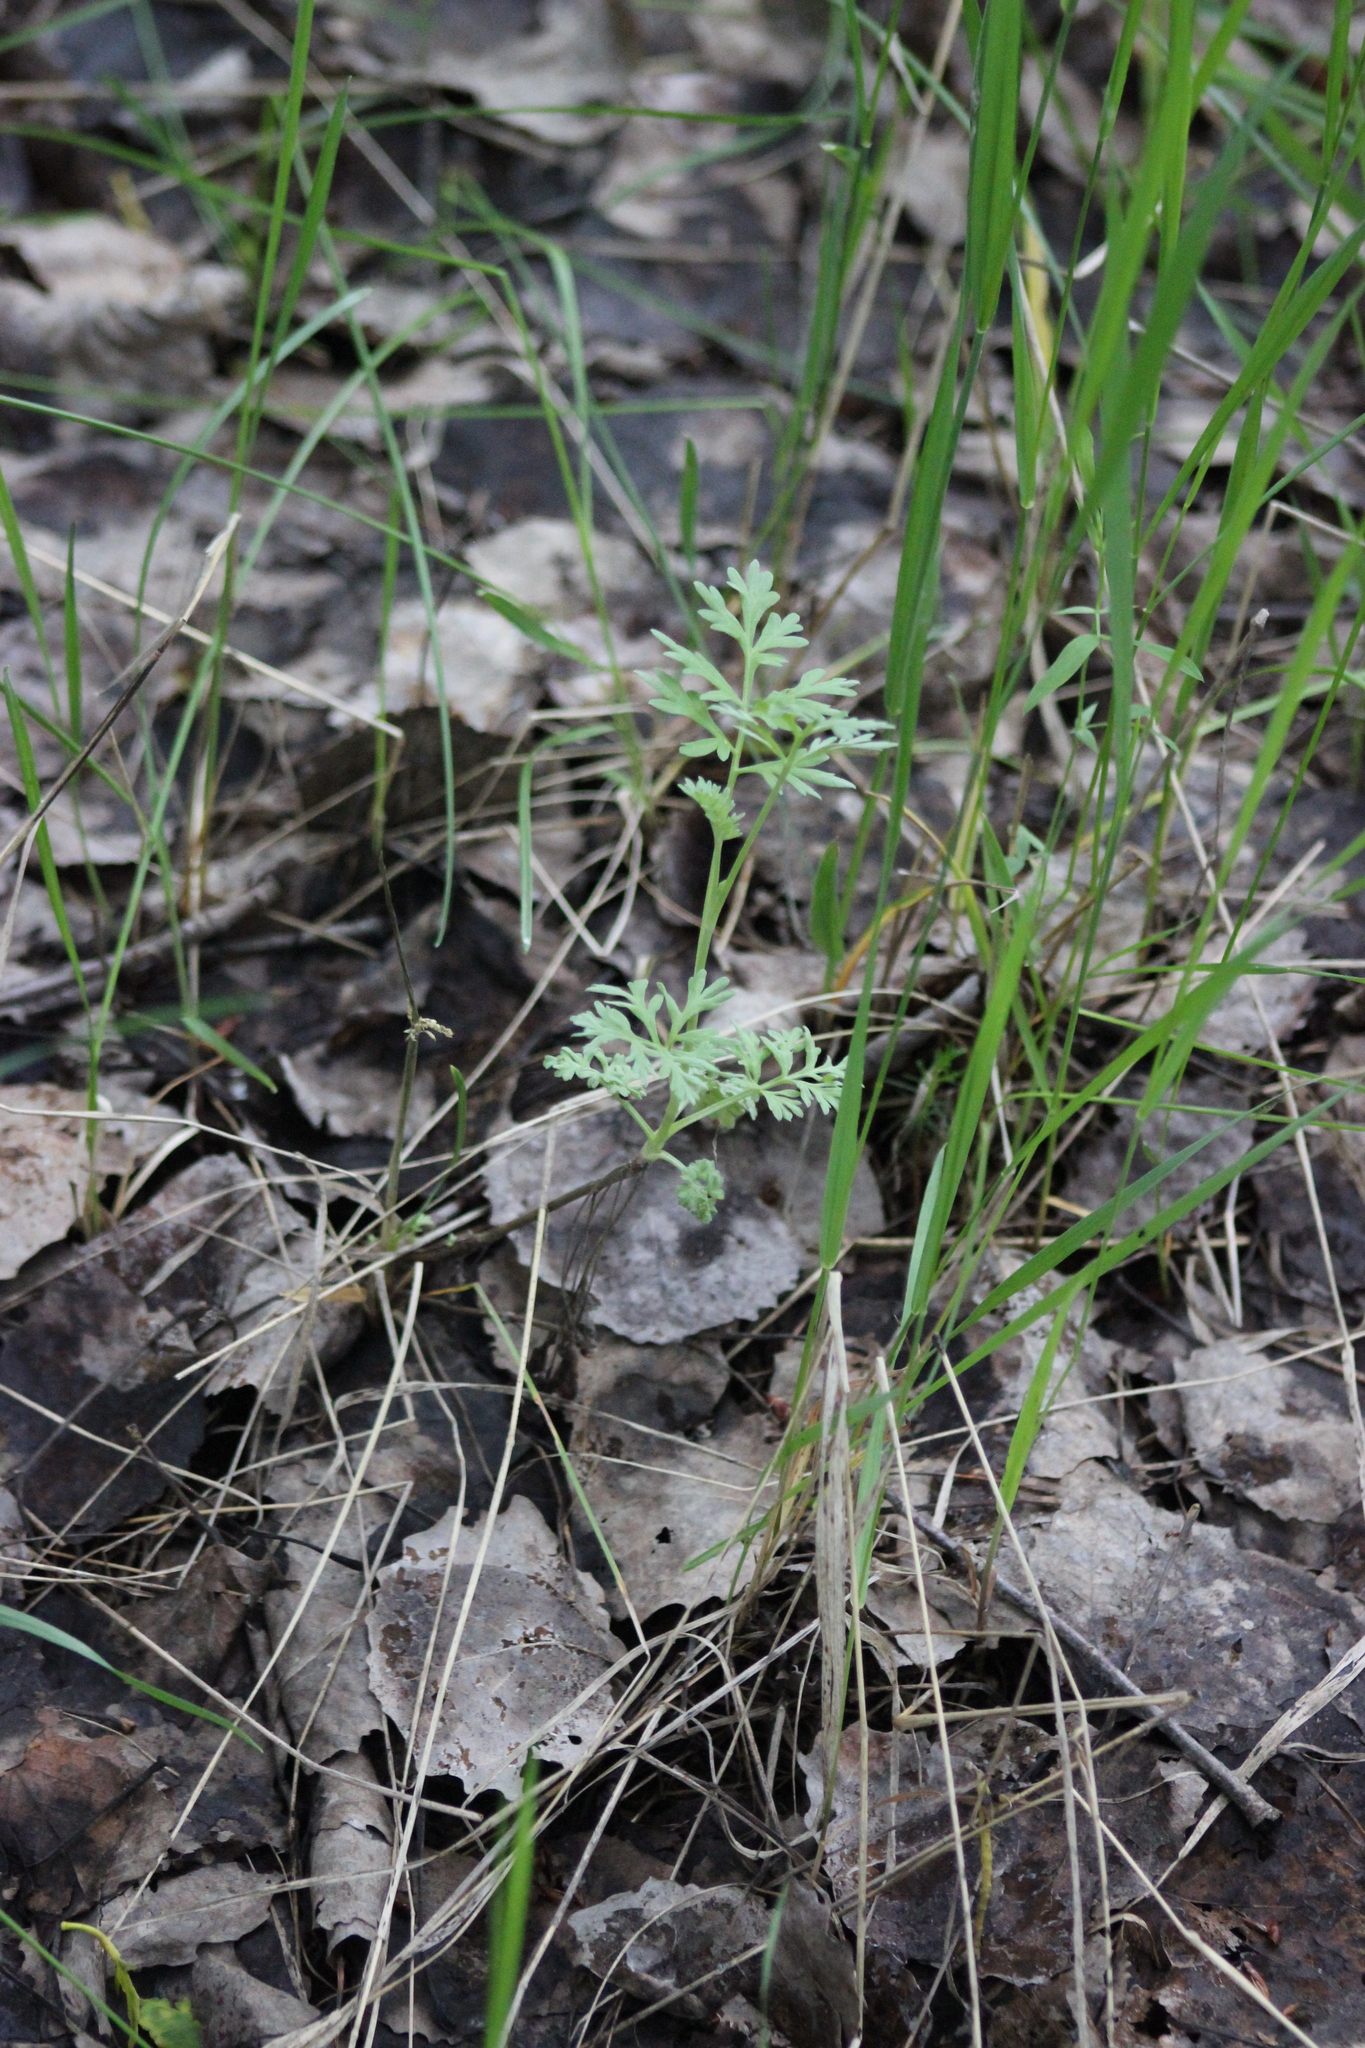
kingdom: Plantae
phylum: Tracheophyta
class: Magnoliopsida
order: Asterales
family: Asteraceae
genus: Artemisia
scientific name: Artemisia absinthium
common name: Wormwood
